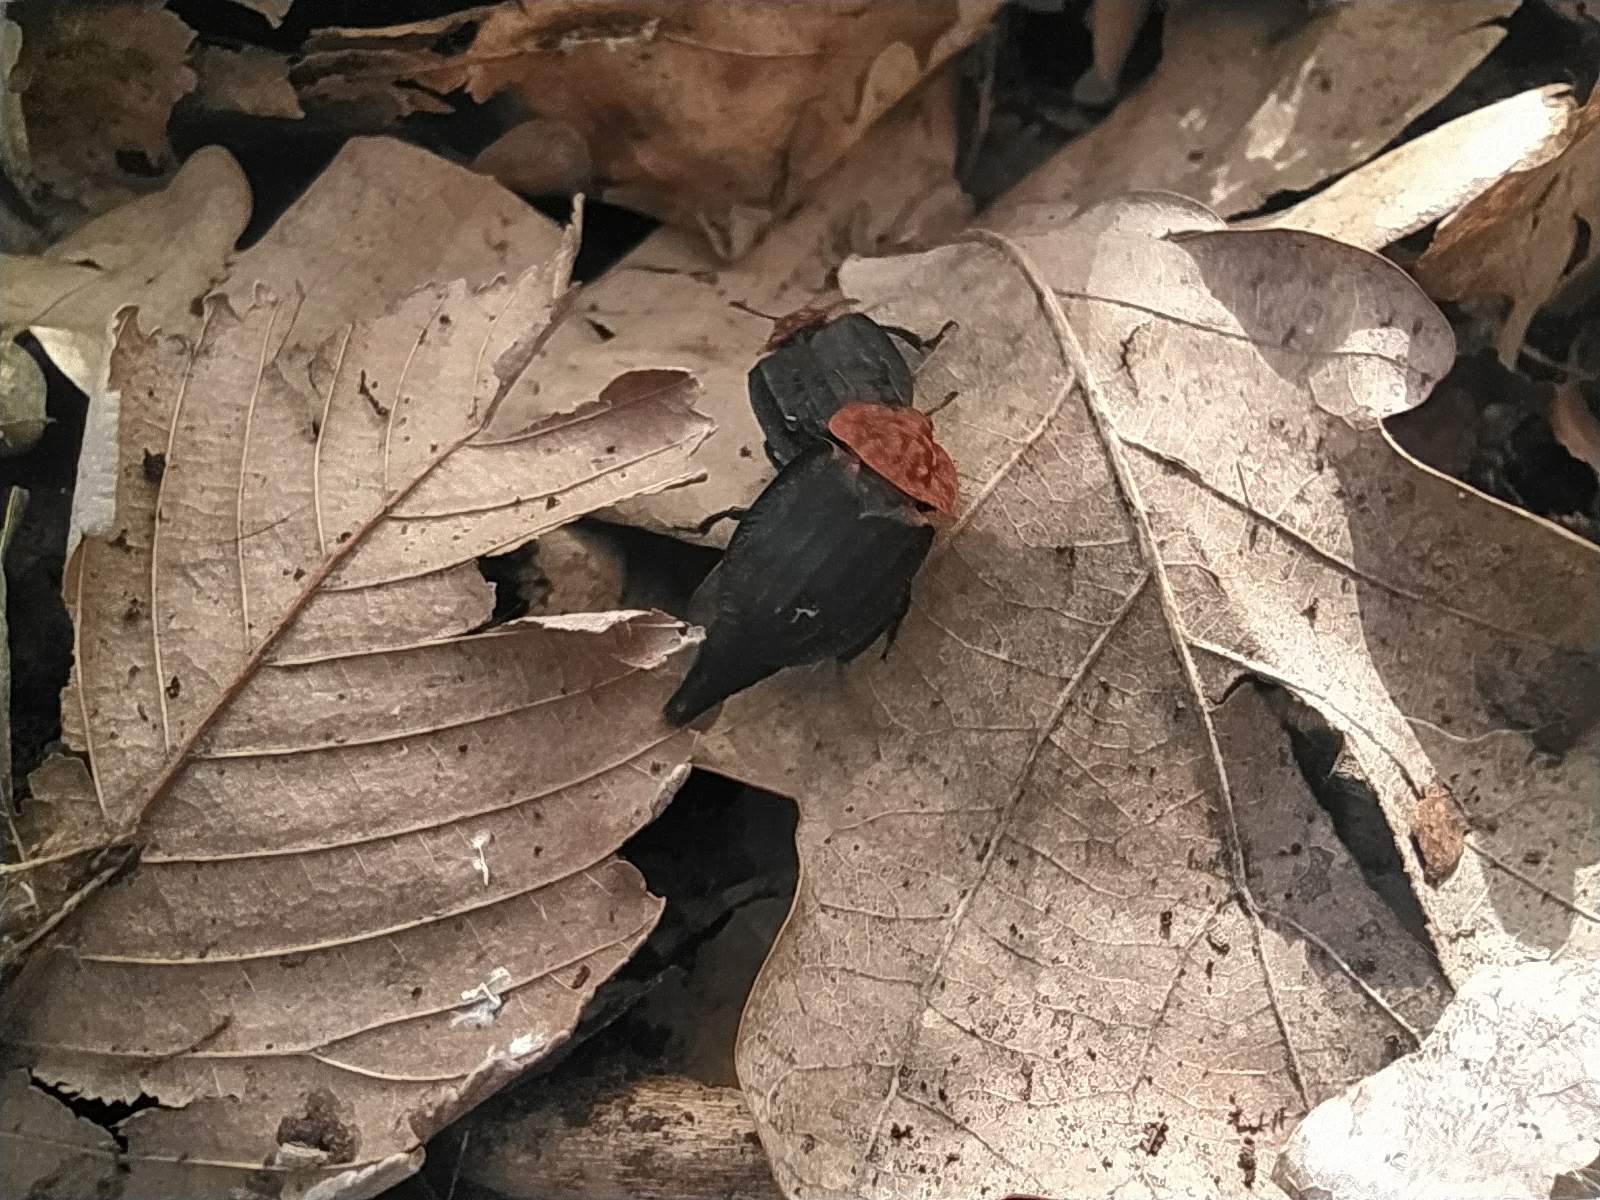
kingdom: Animalia
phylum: Arthropoda
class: Insecta
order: Coleoptera
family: Staphylinidae
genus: Oiceoptoma
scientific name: Oiceoptoma thoracicum
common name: Red-breasted carrion beetle
